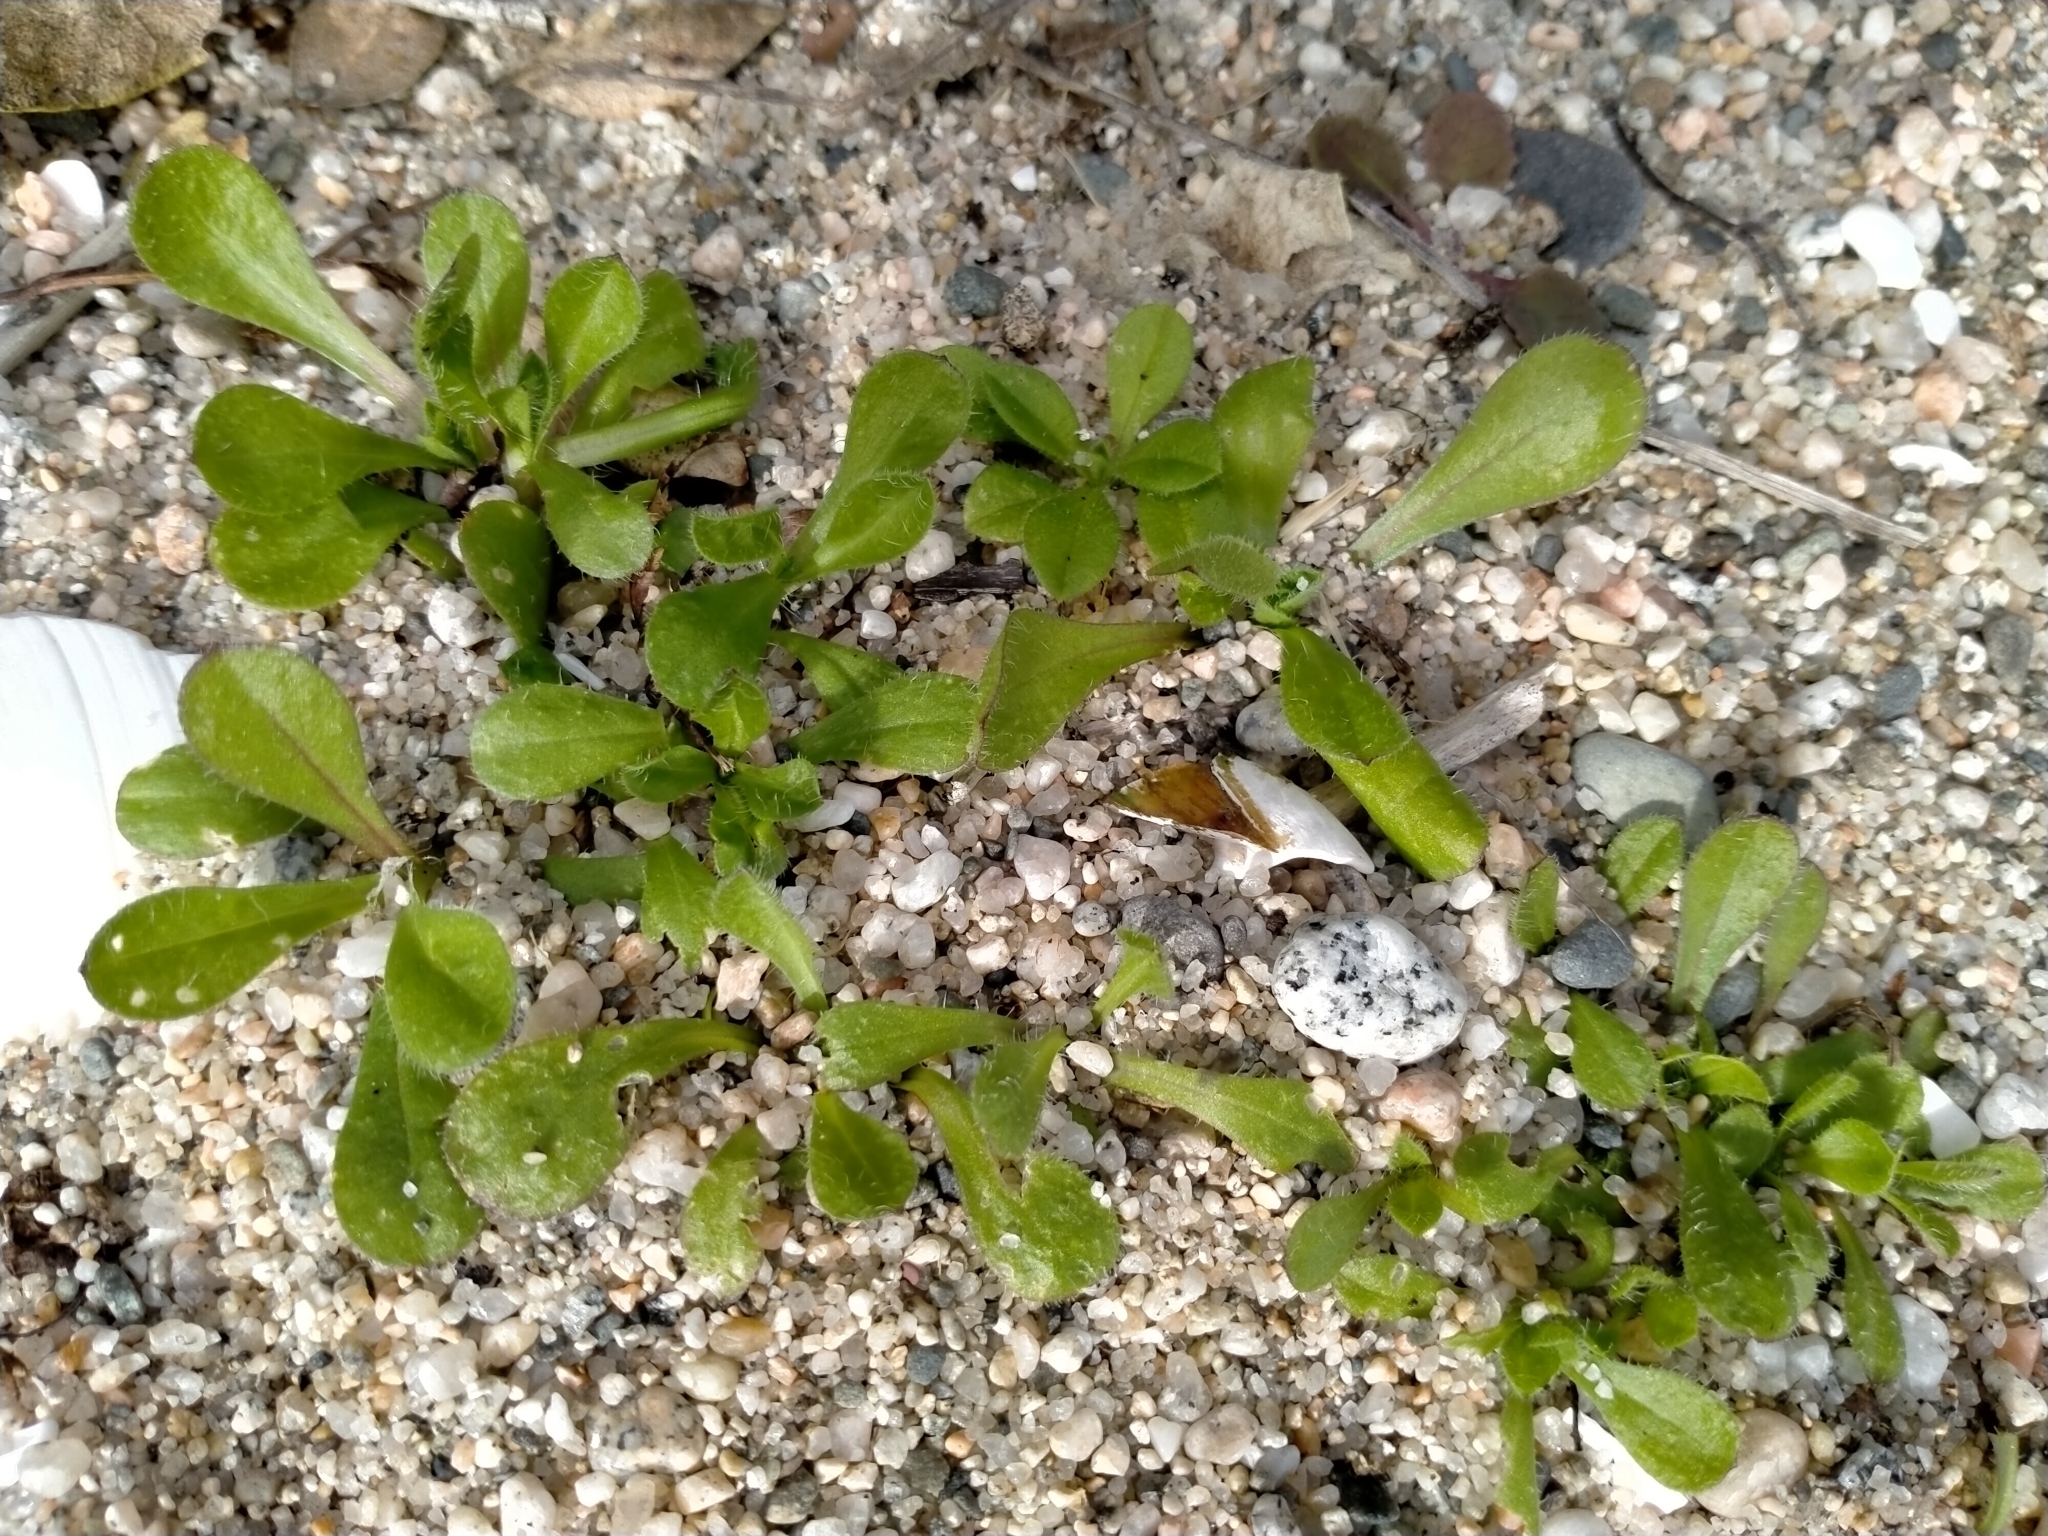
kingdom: Plantae
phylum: Tracheophyta
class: Magnoliopsida
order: Asterales
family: Campanulaceae
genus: Wahlenbergia
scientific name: Wahlenbergia congesta
